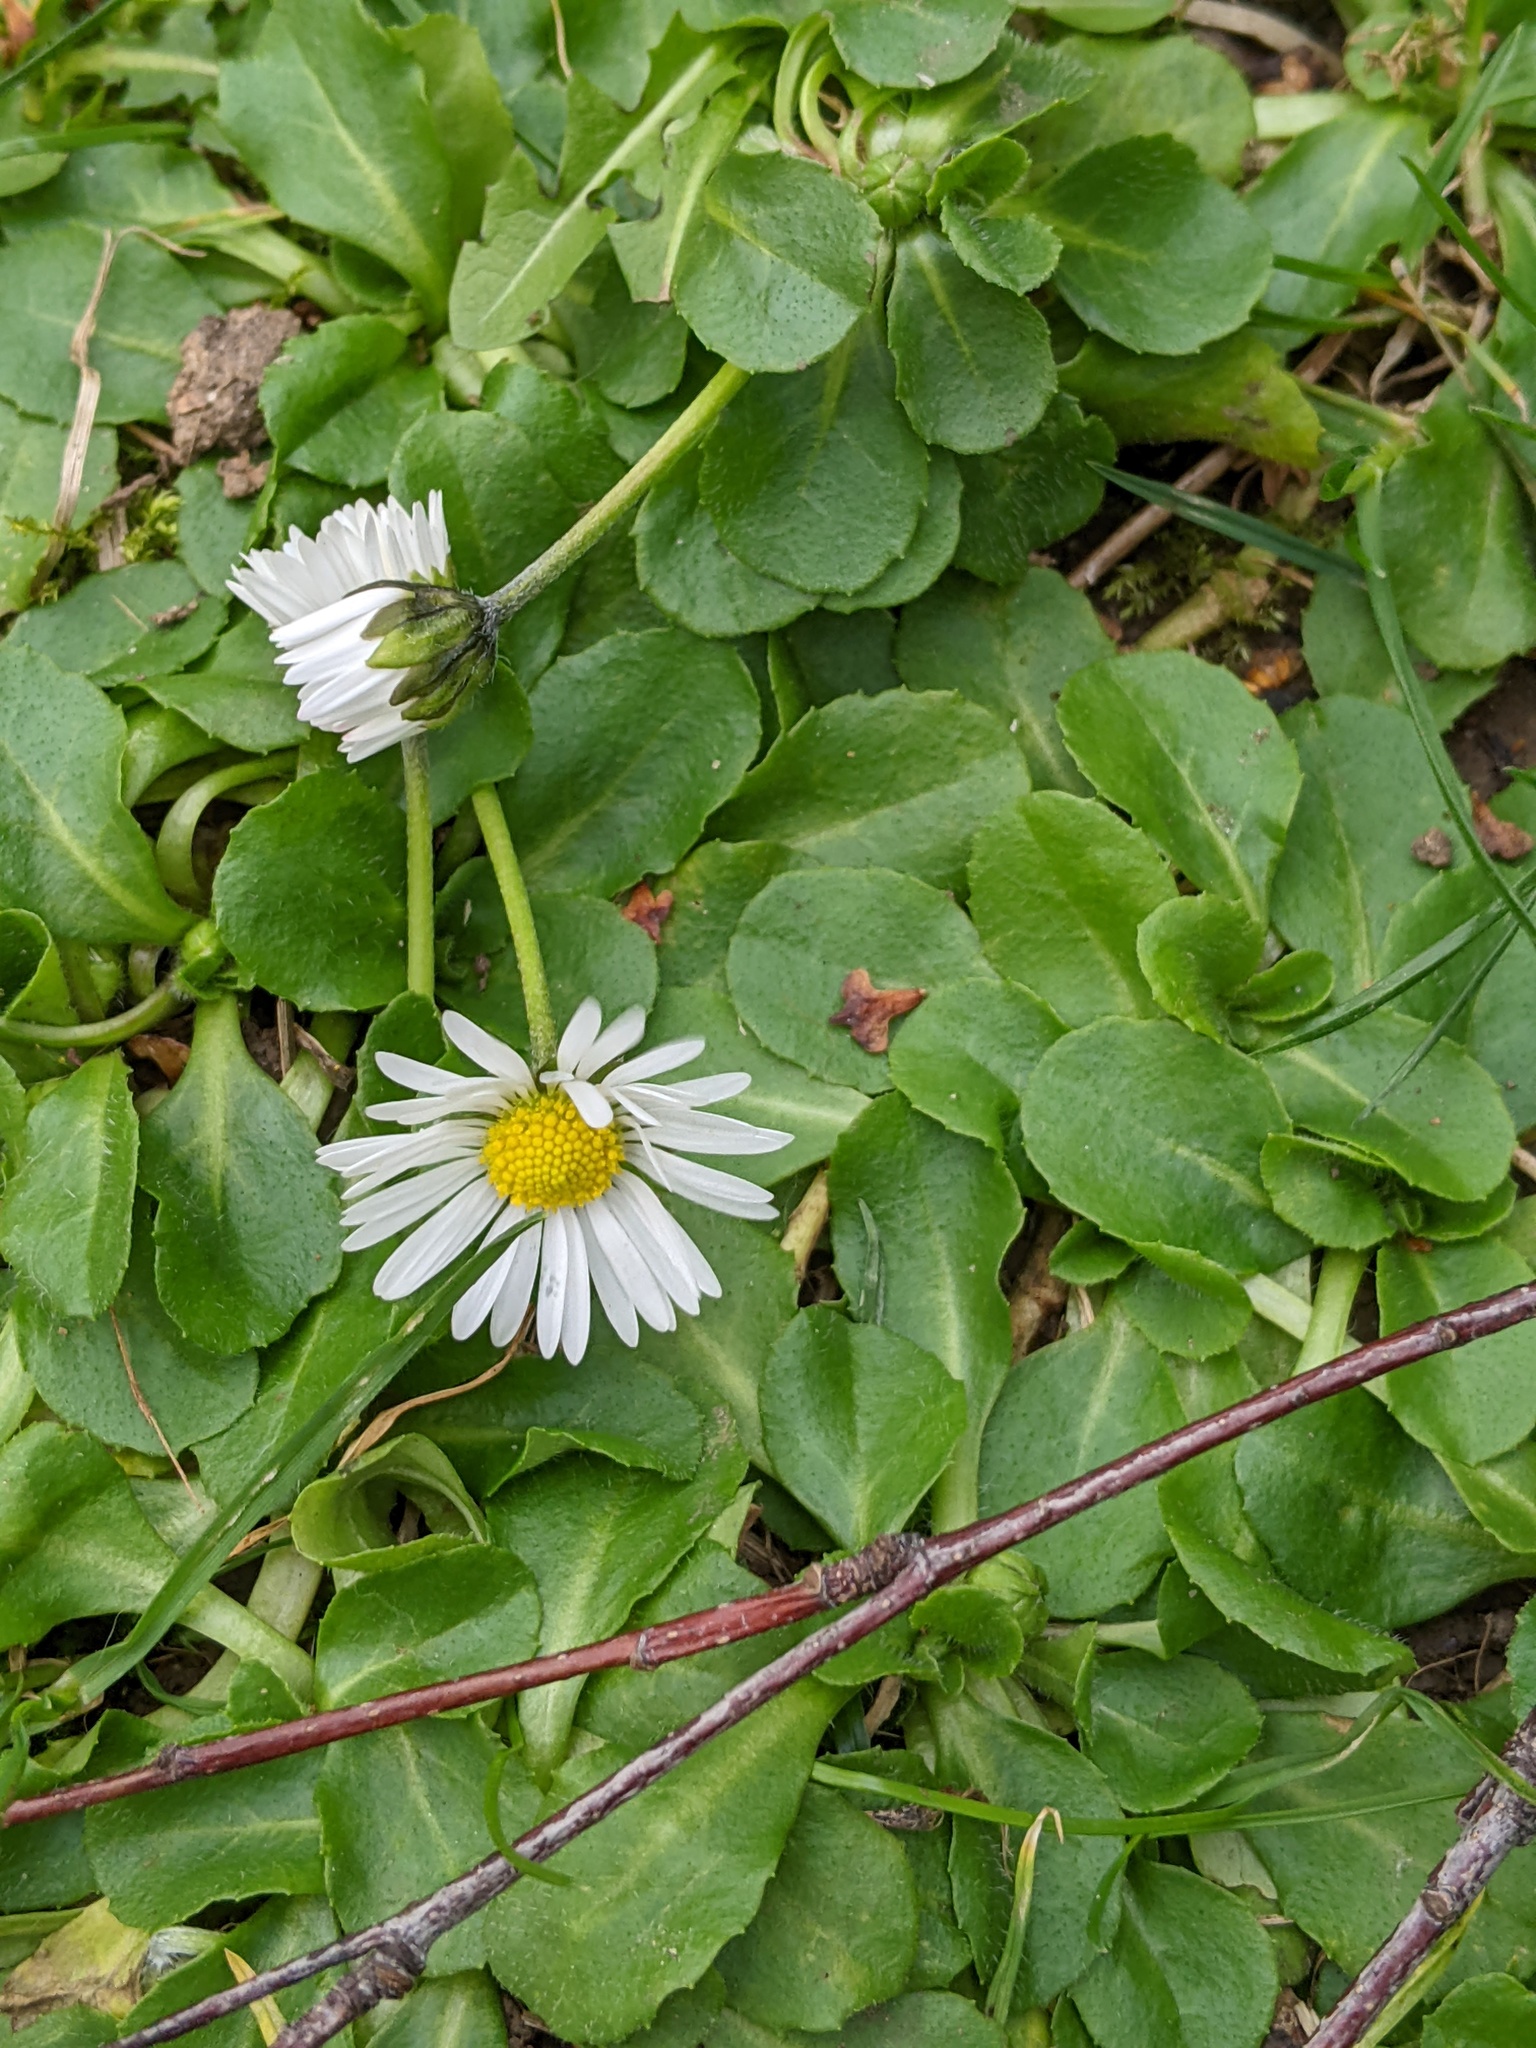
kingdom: Plantae
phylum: Tracheophyta
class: Magnoliopsida
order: Asterales
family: Asteraceae
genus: Bellis
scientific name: Bellis perennis
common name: Lawndaisy
